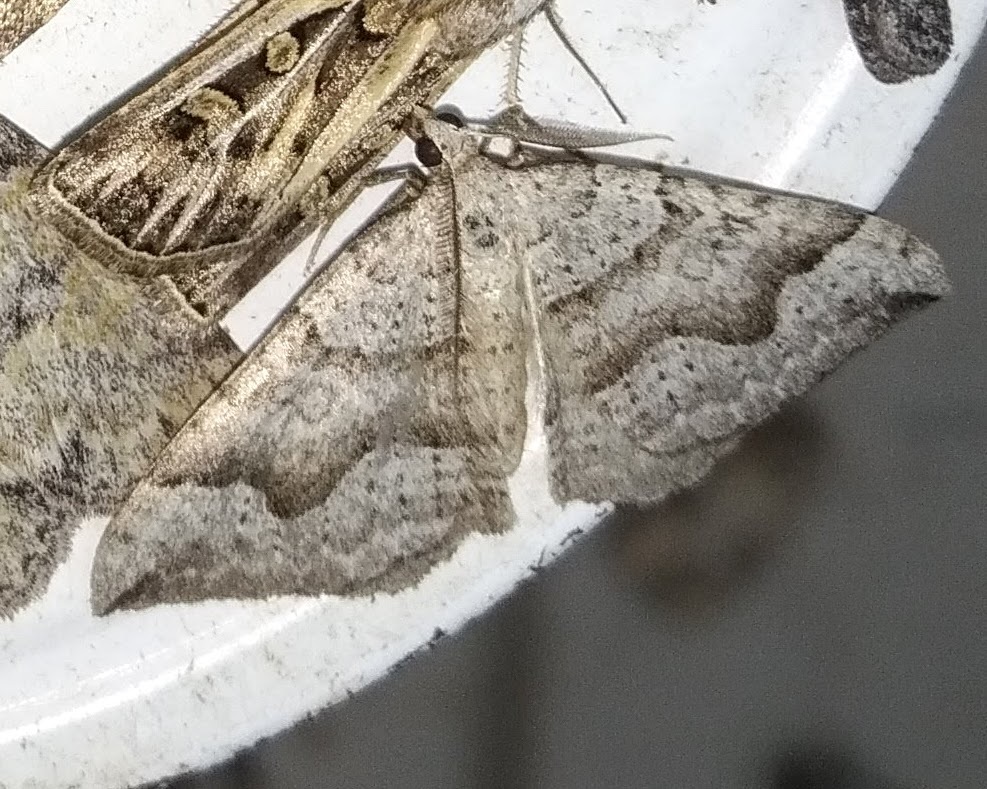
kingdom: Animalia
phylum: Arthropoda
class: Insecta
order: Lepidoptera
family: Geometridae
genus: Zenophleps
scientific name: Zenophleps alpinata
